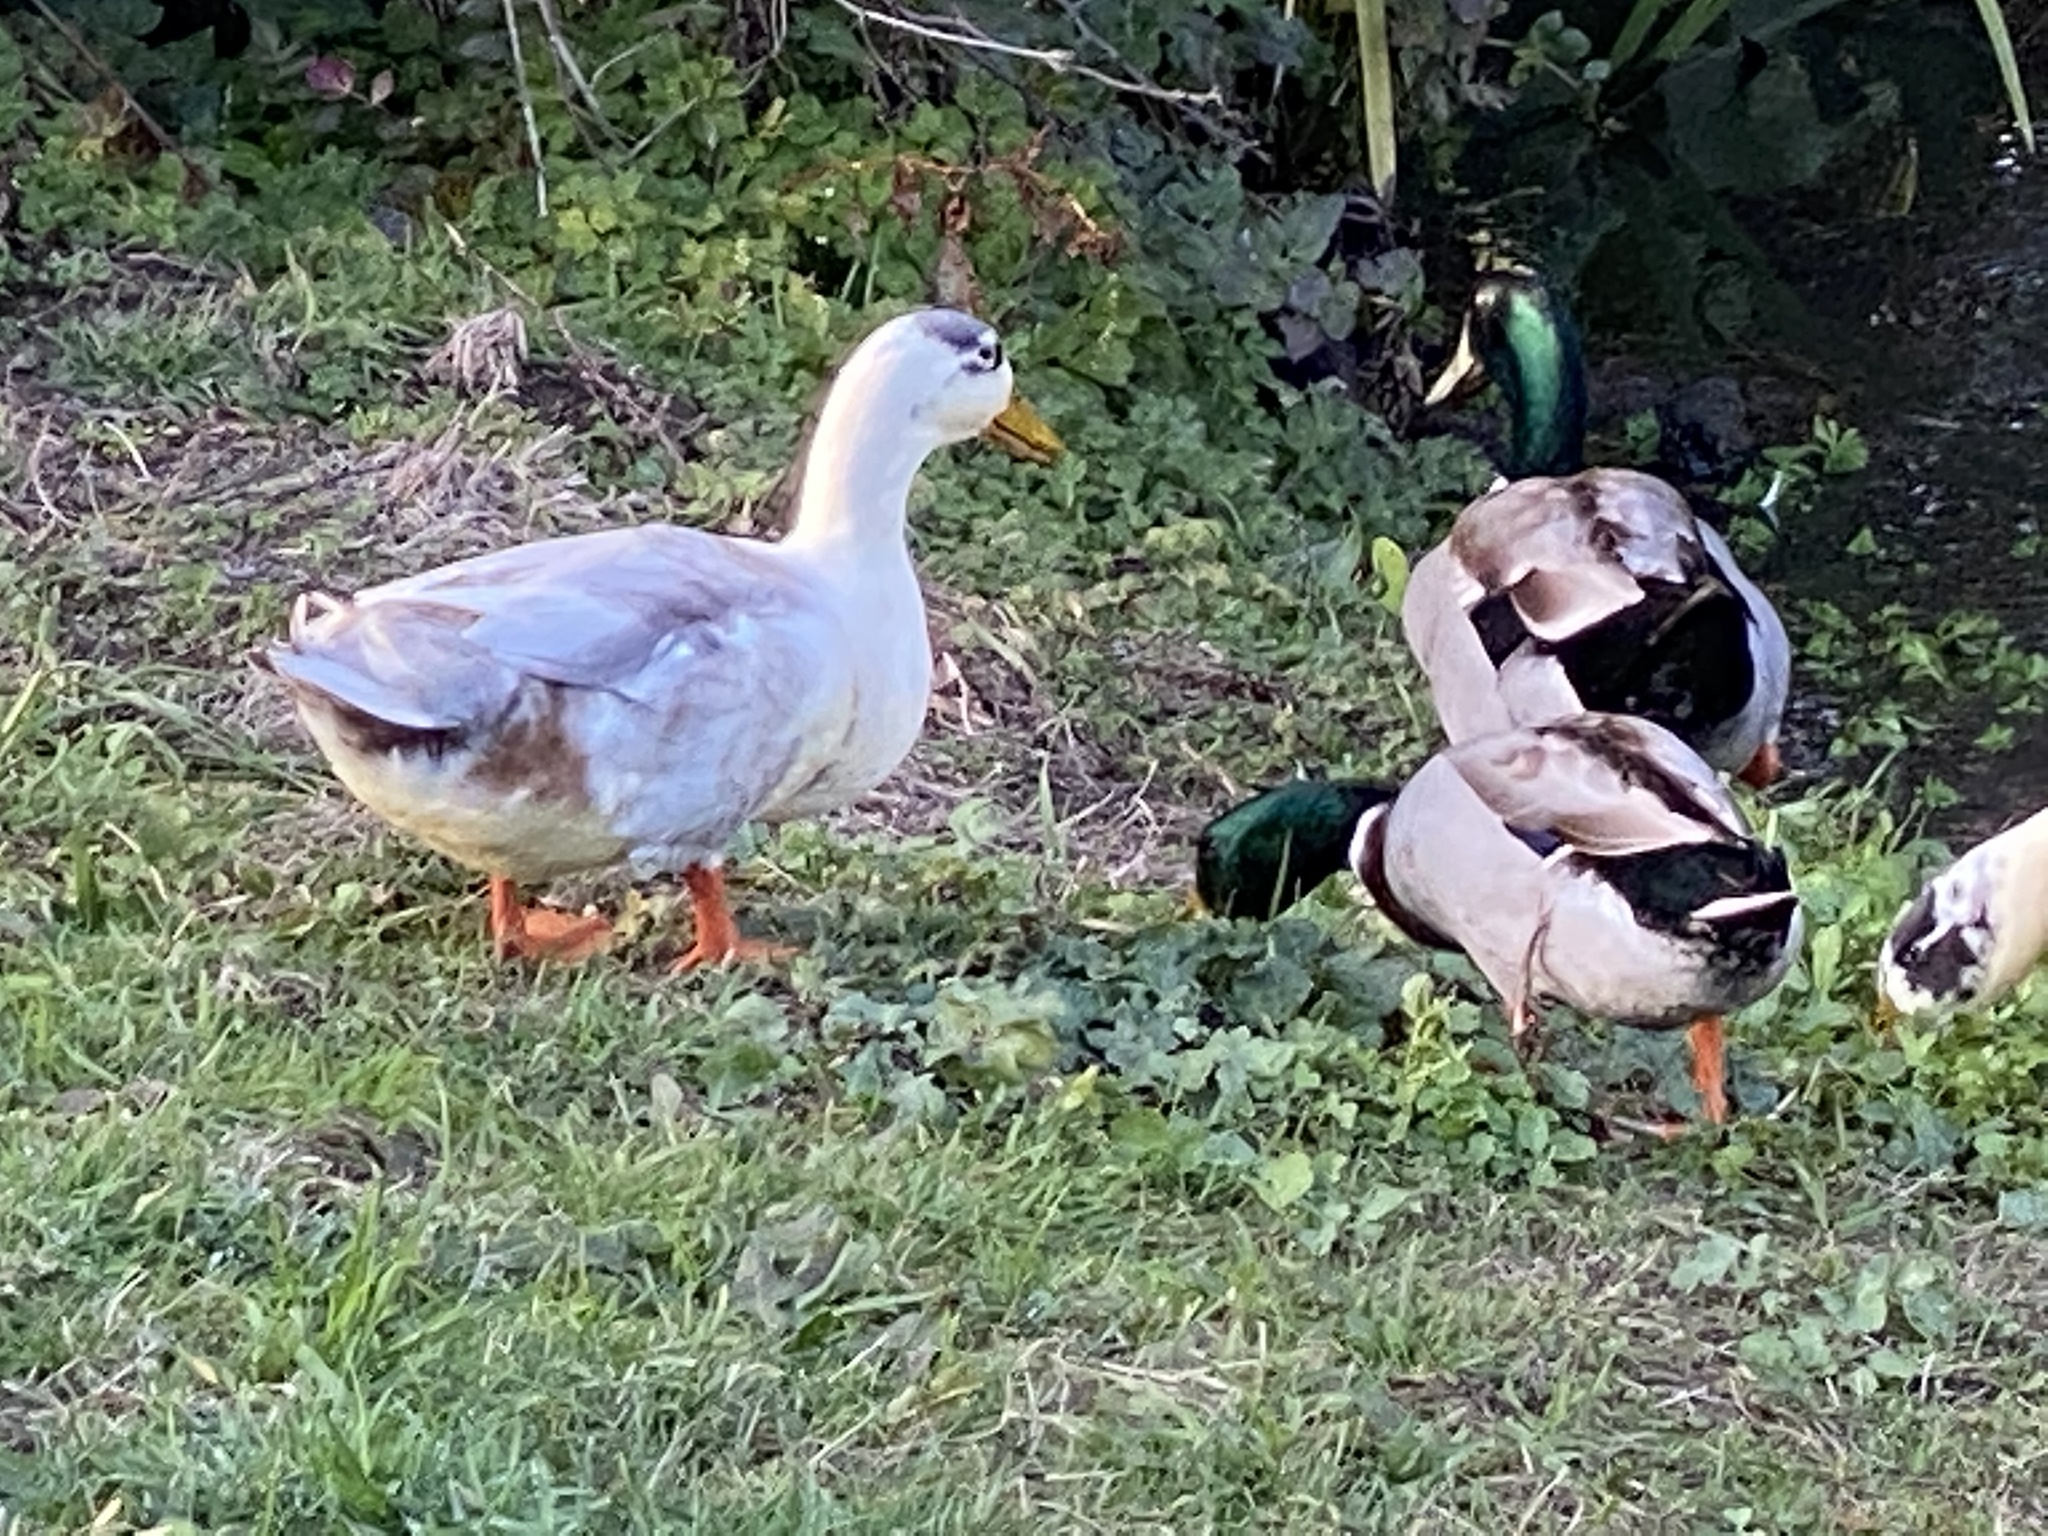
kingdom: Animalia
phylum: Chordata
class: Aves
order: Anseriformes
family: Anatidae
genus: Anas
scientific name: Anas platyrhynchos
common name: Mallard
